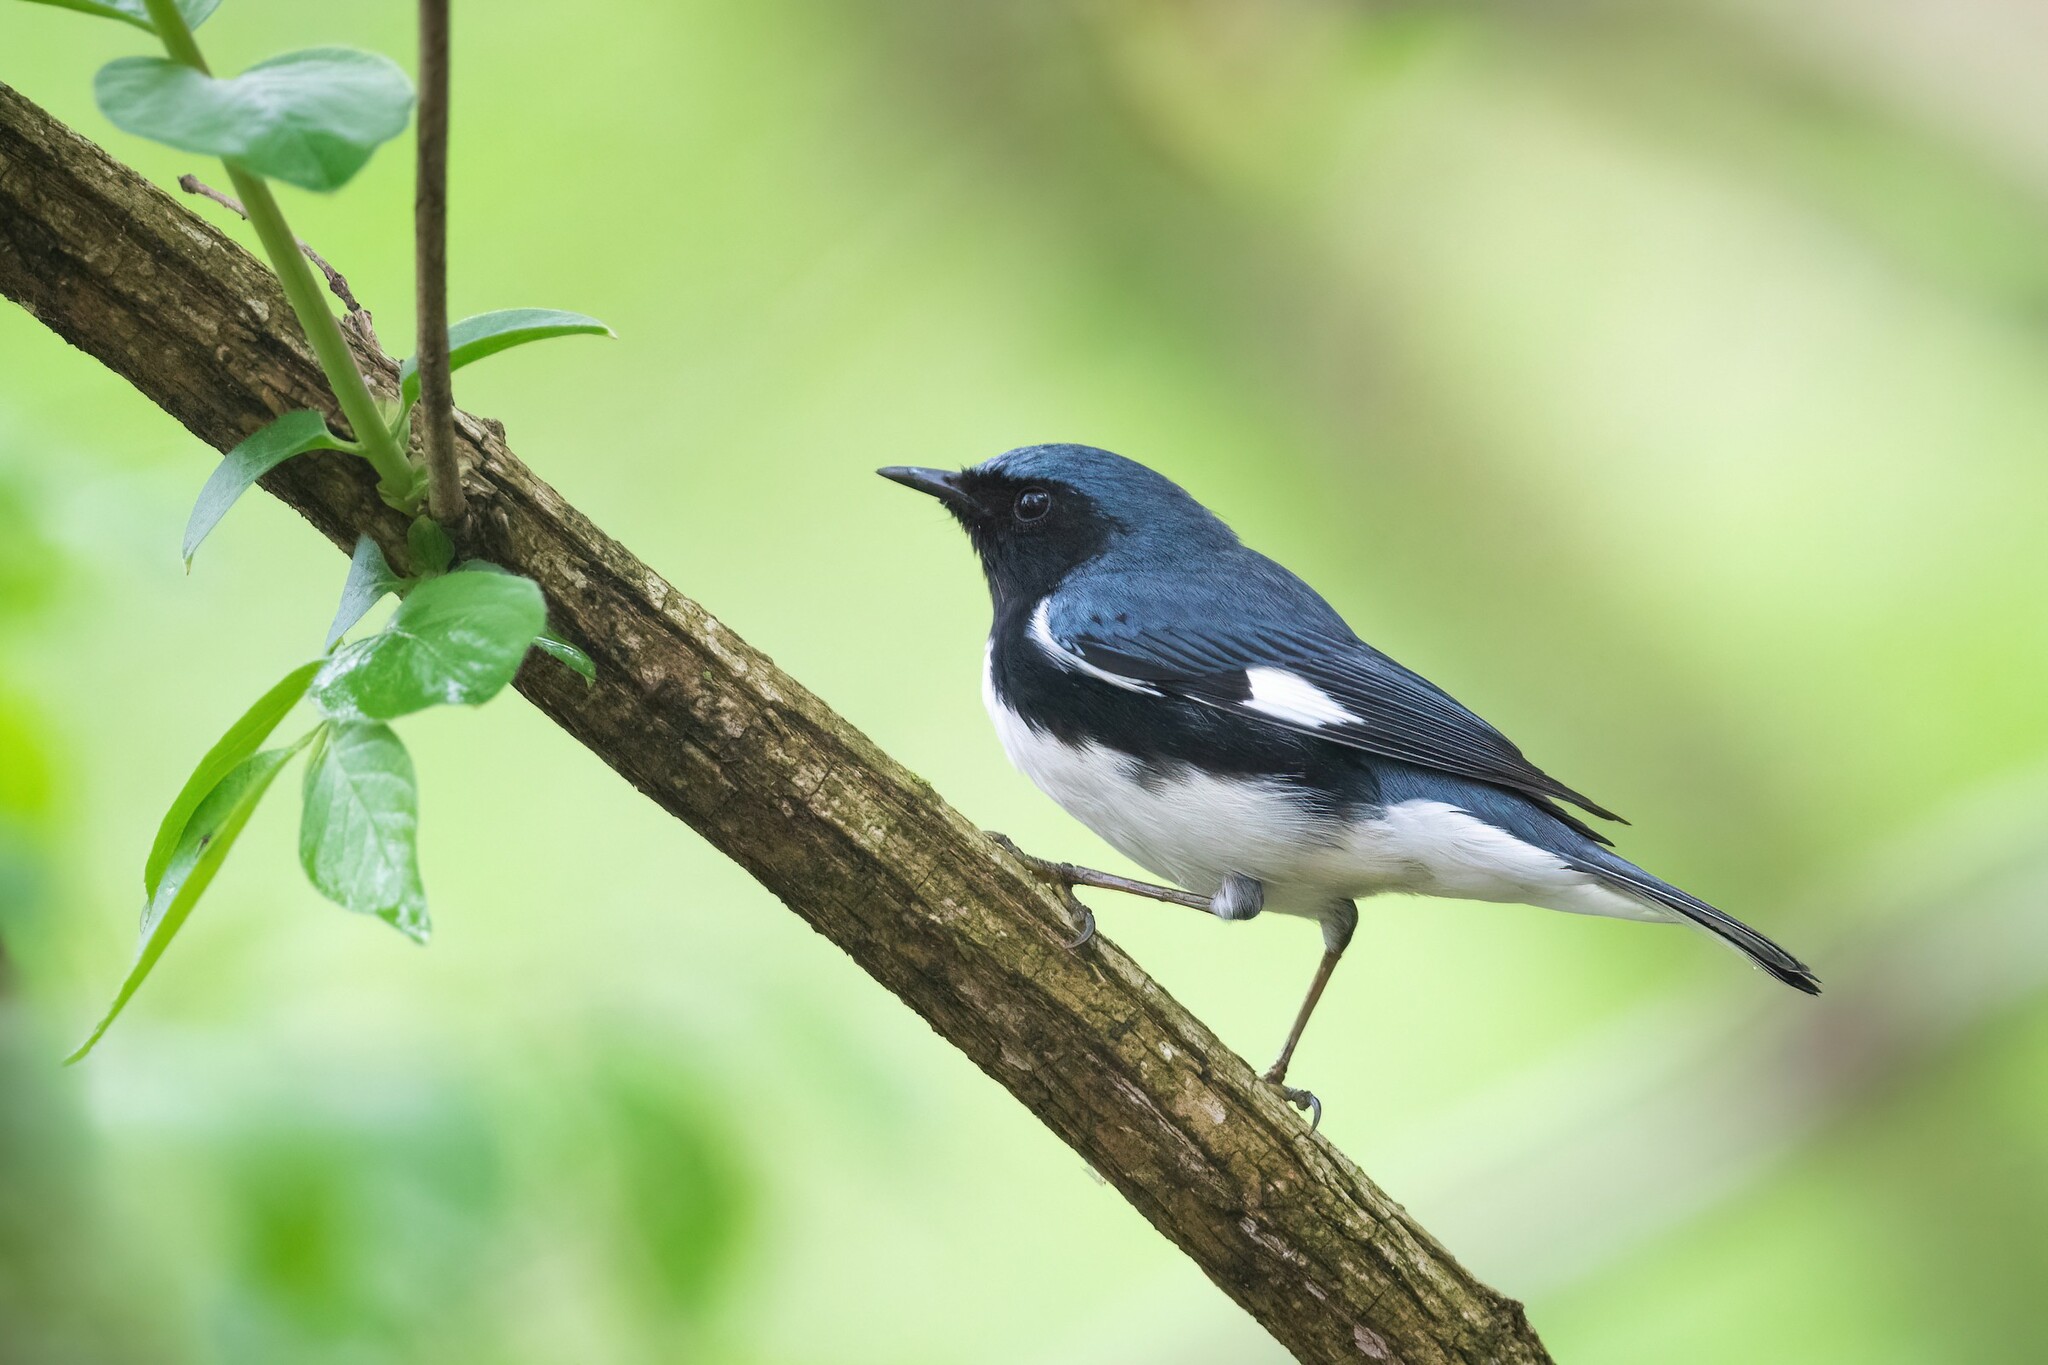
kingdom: Animalia
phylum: Chordata
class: Aves
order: Passeriformes
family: Parulidae
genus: Setophaga
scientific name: Setophaga caerulescens
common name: Black-throated blue warbler
